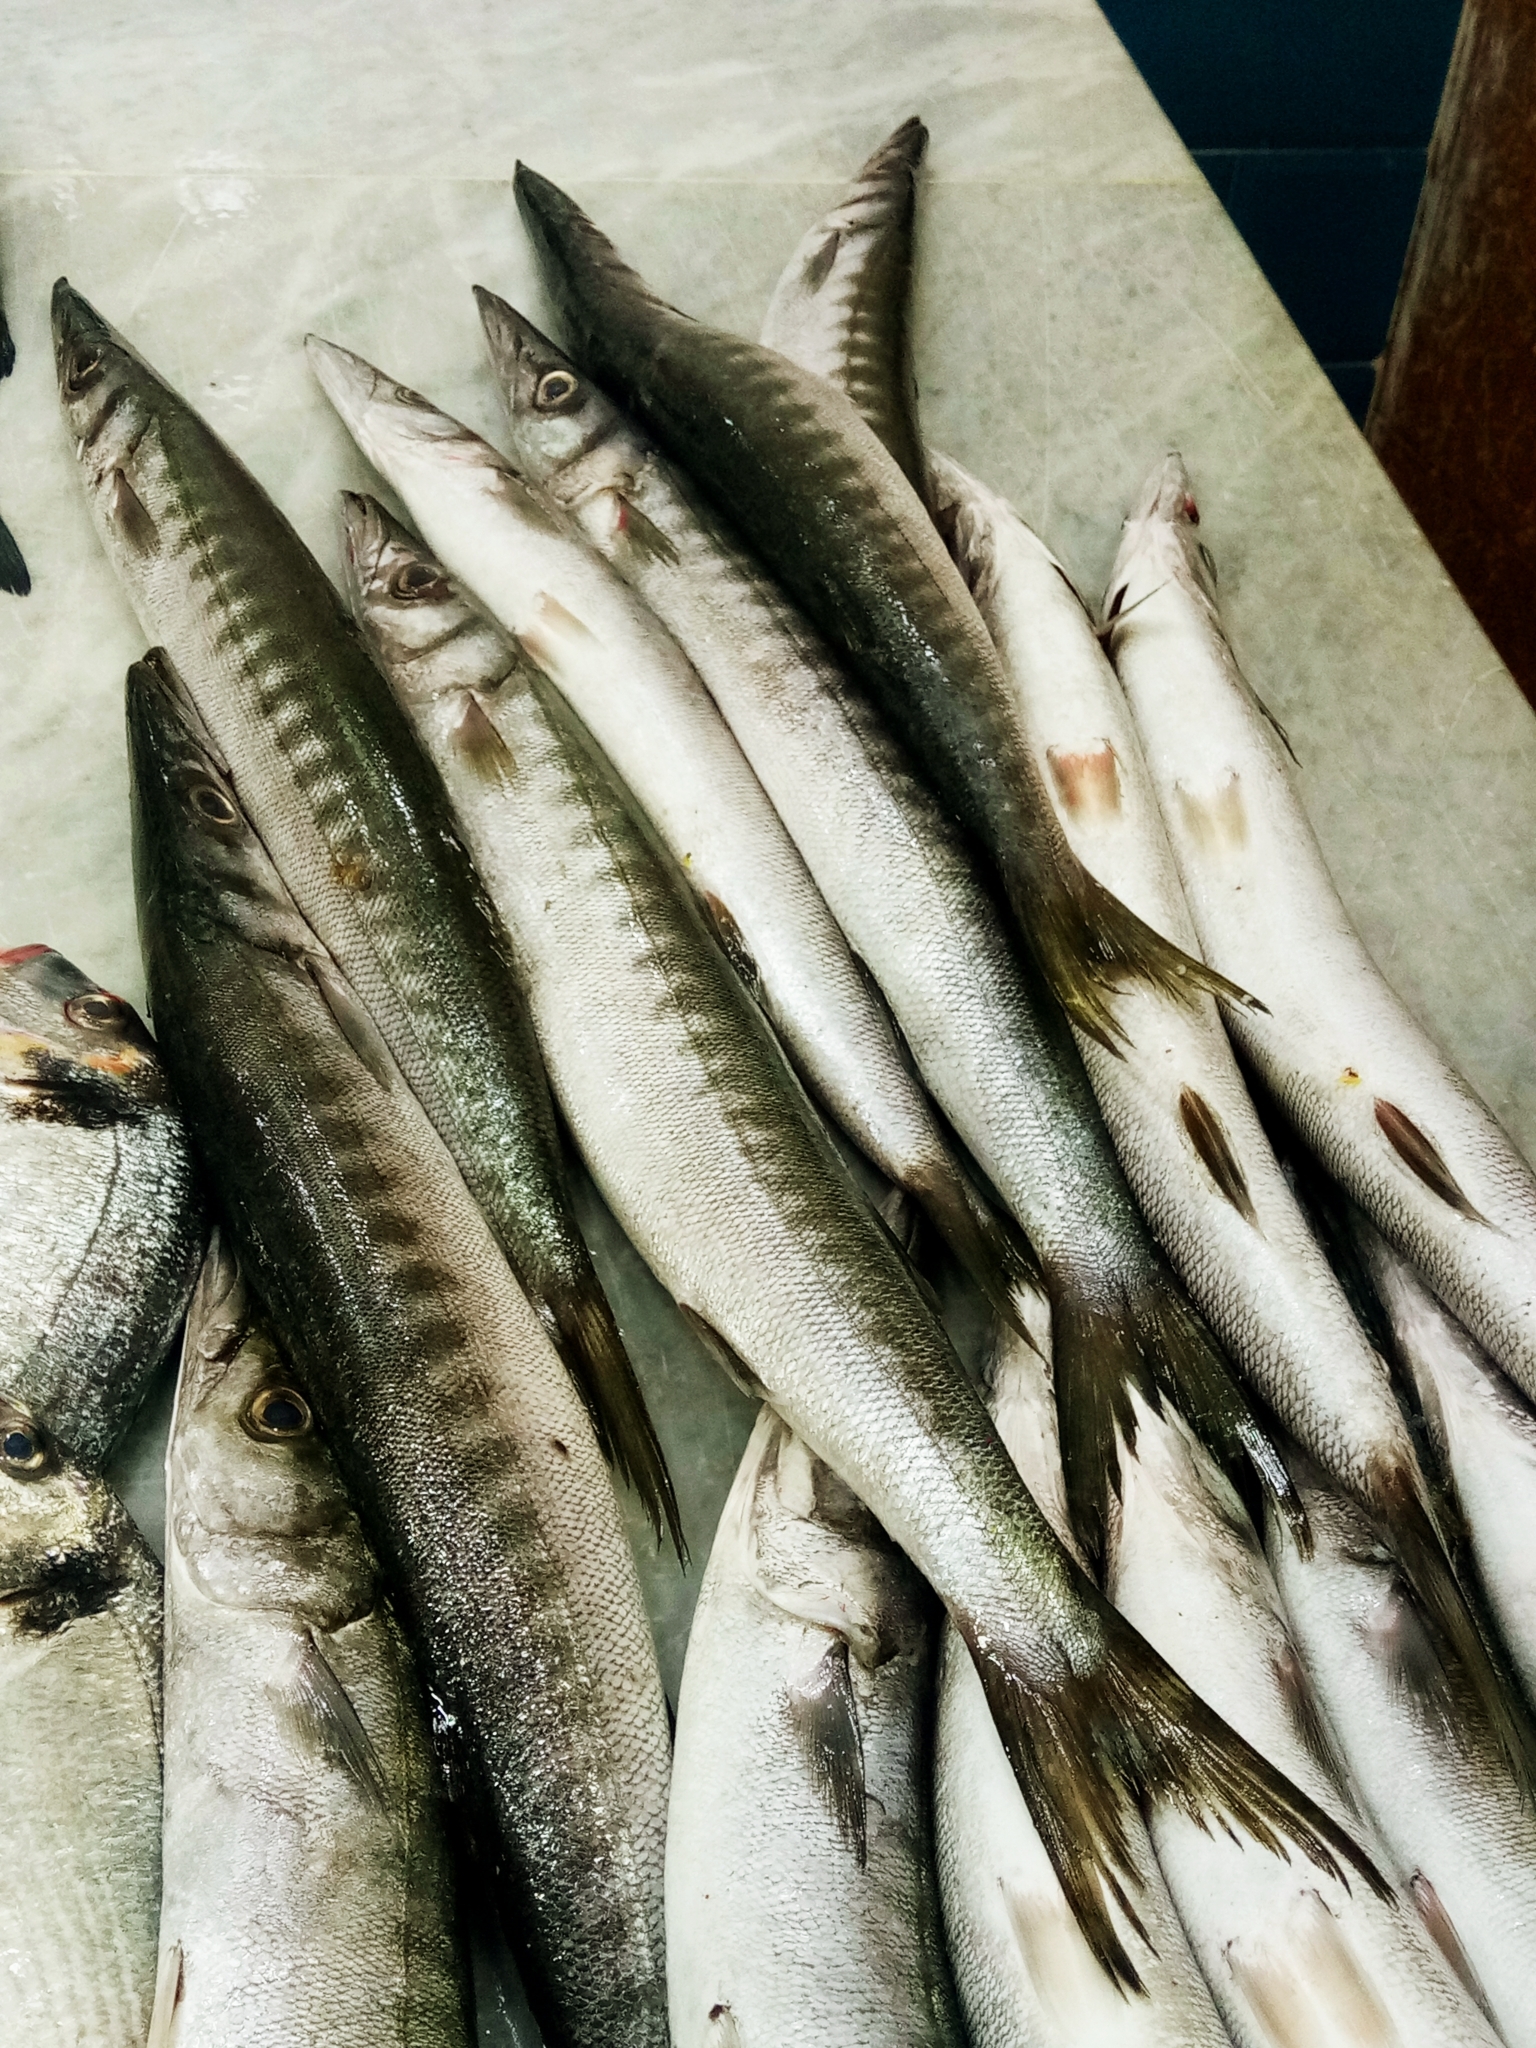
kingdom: Animalia
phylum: Chordata
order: Perciformes
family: Sphyraenidae
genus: Sphyraena
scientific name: Sphyraena viridensis
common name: Yellowmouth barracuda
